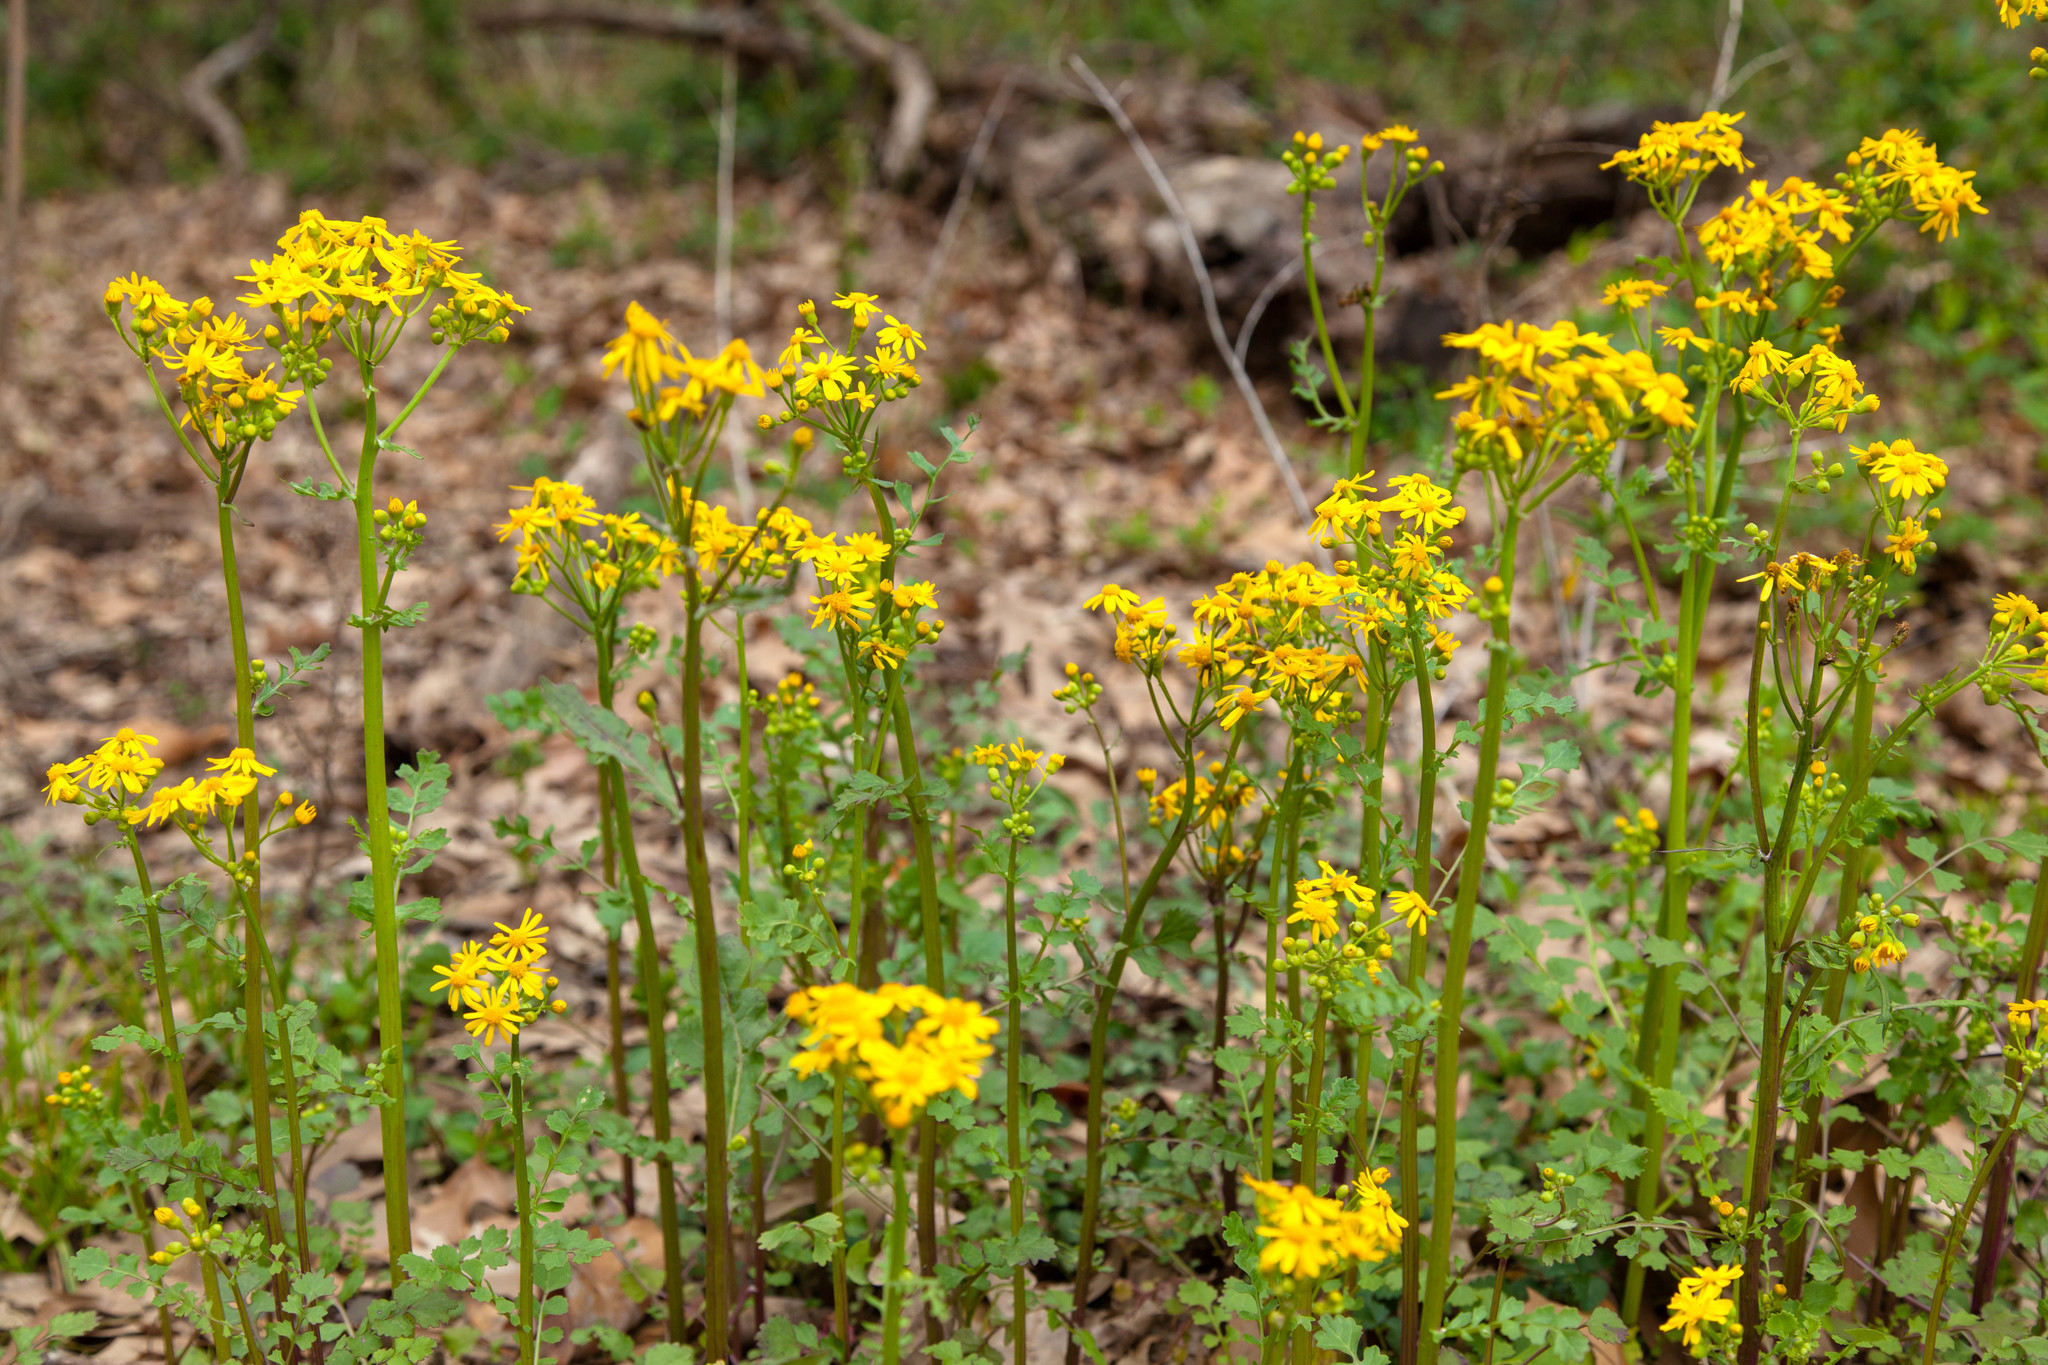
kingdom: Plantae
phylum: Tracheophyta
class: Magnoliopsida
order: Asterales
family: Asteraceae
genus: Packera
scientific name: Packera glabella
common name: Butterweed
